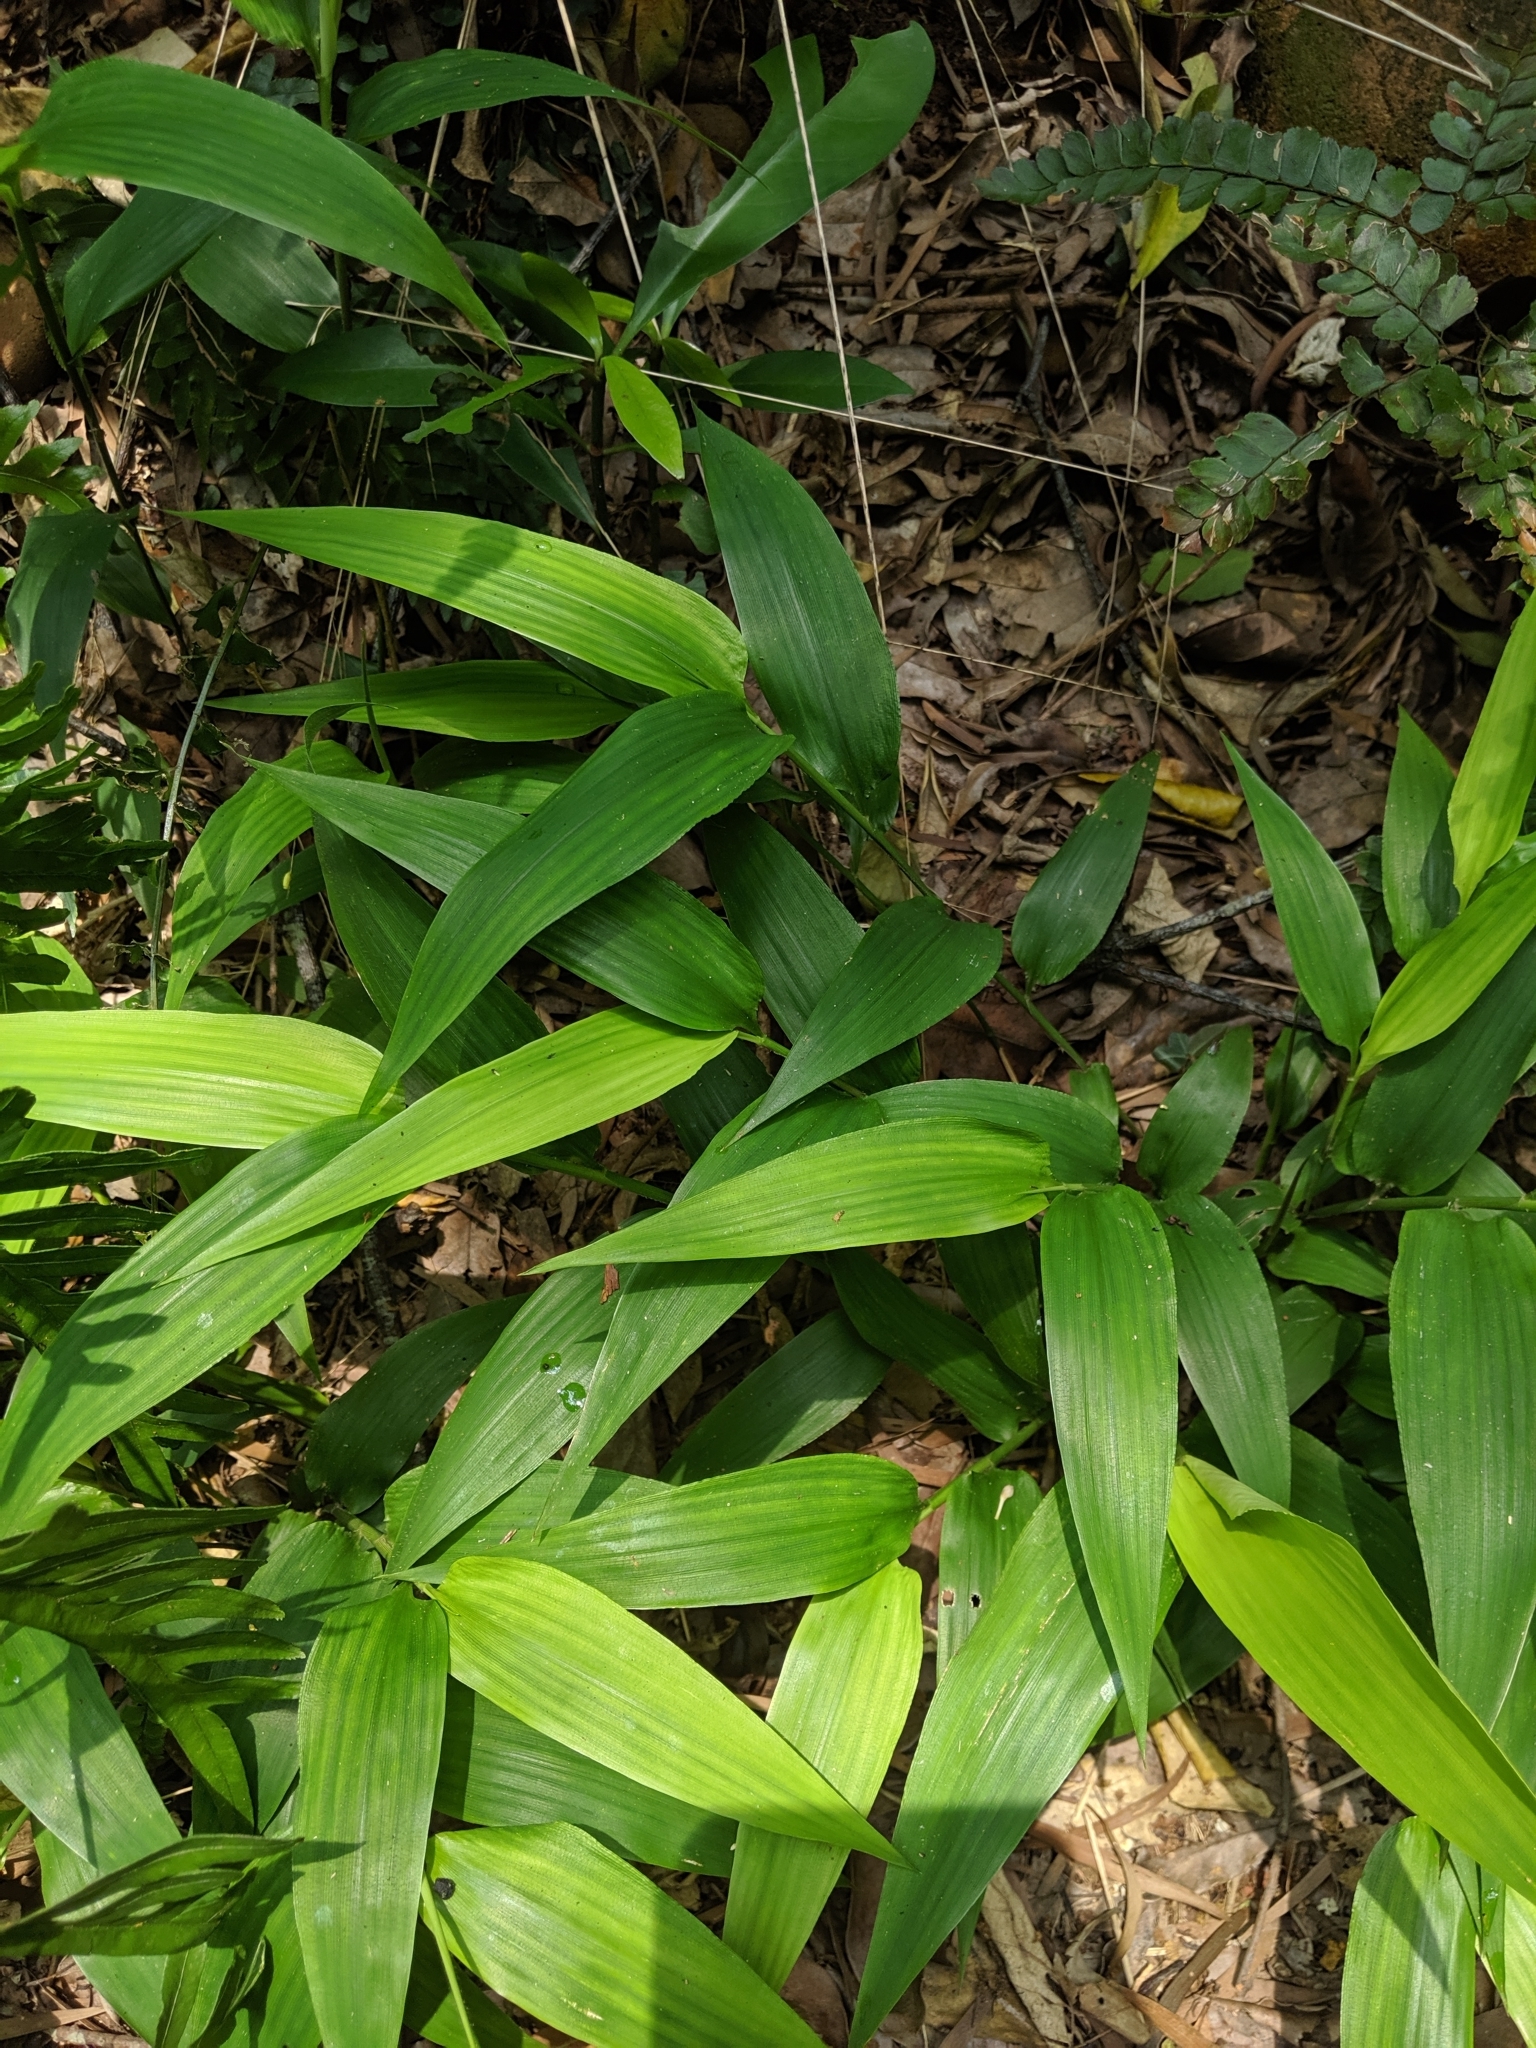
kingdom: Plantae
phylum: Tracheophyta
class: Liliopsida
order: Poales
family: Poaceae
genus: Lophatherum
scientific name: Lophatherum gracile
